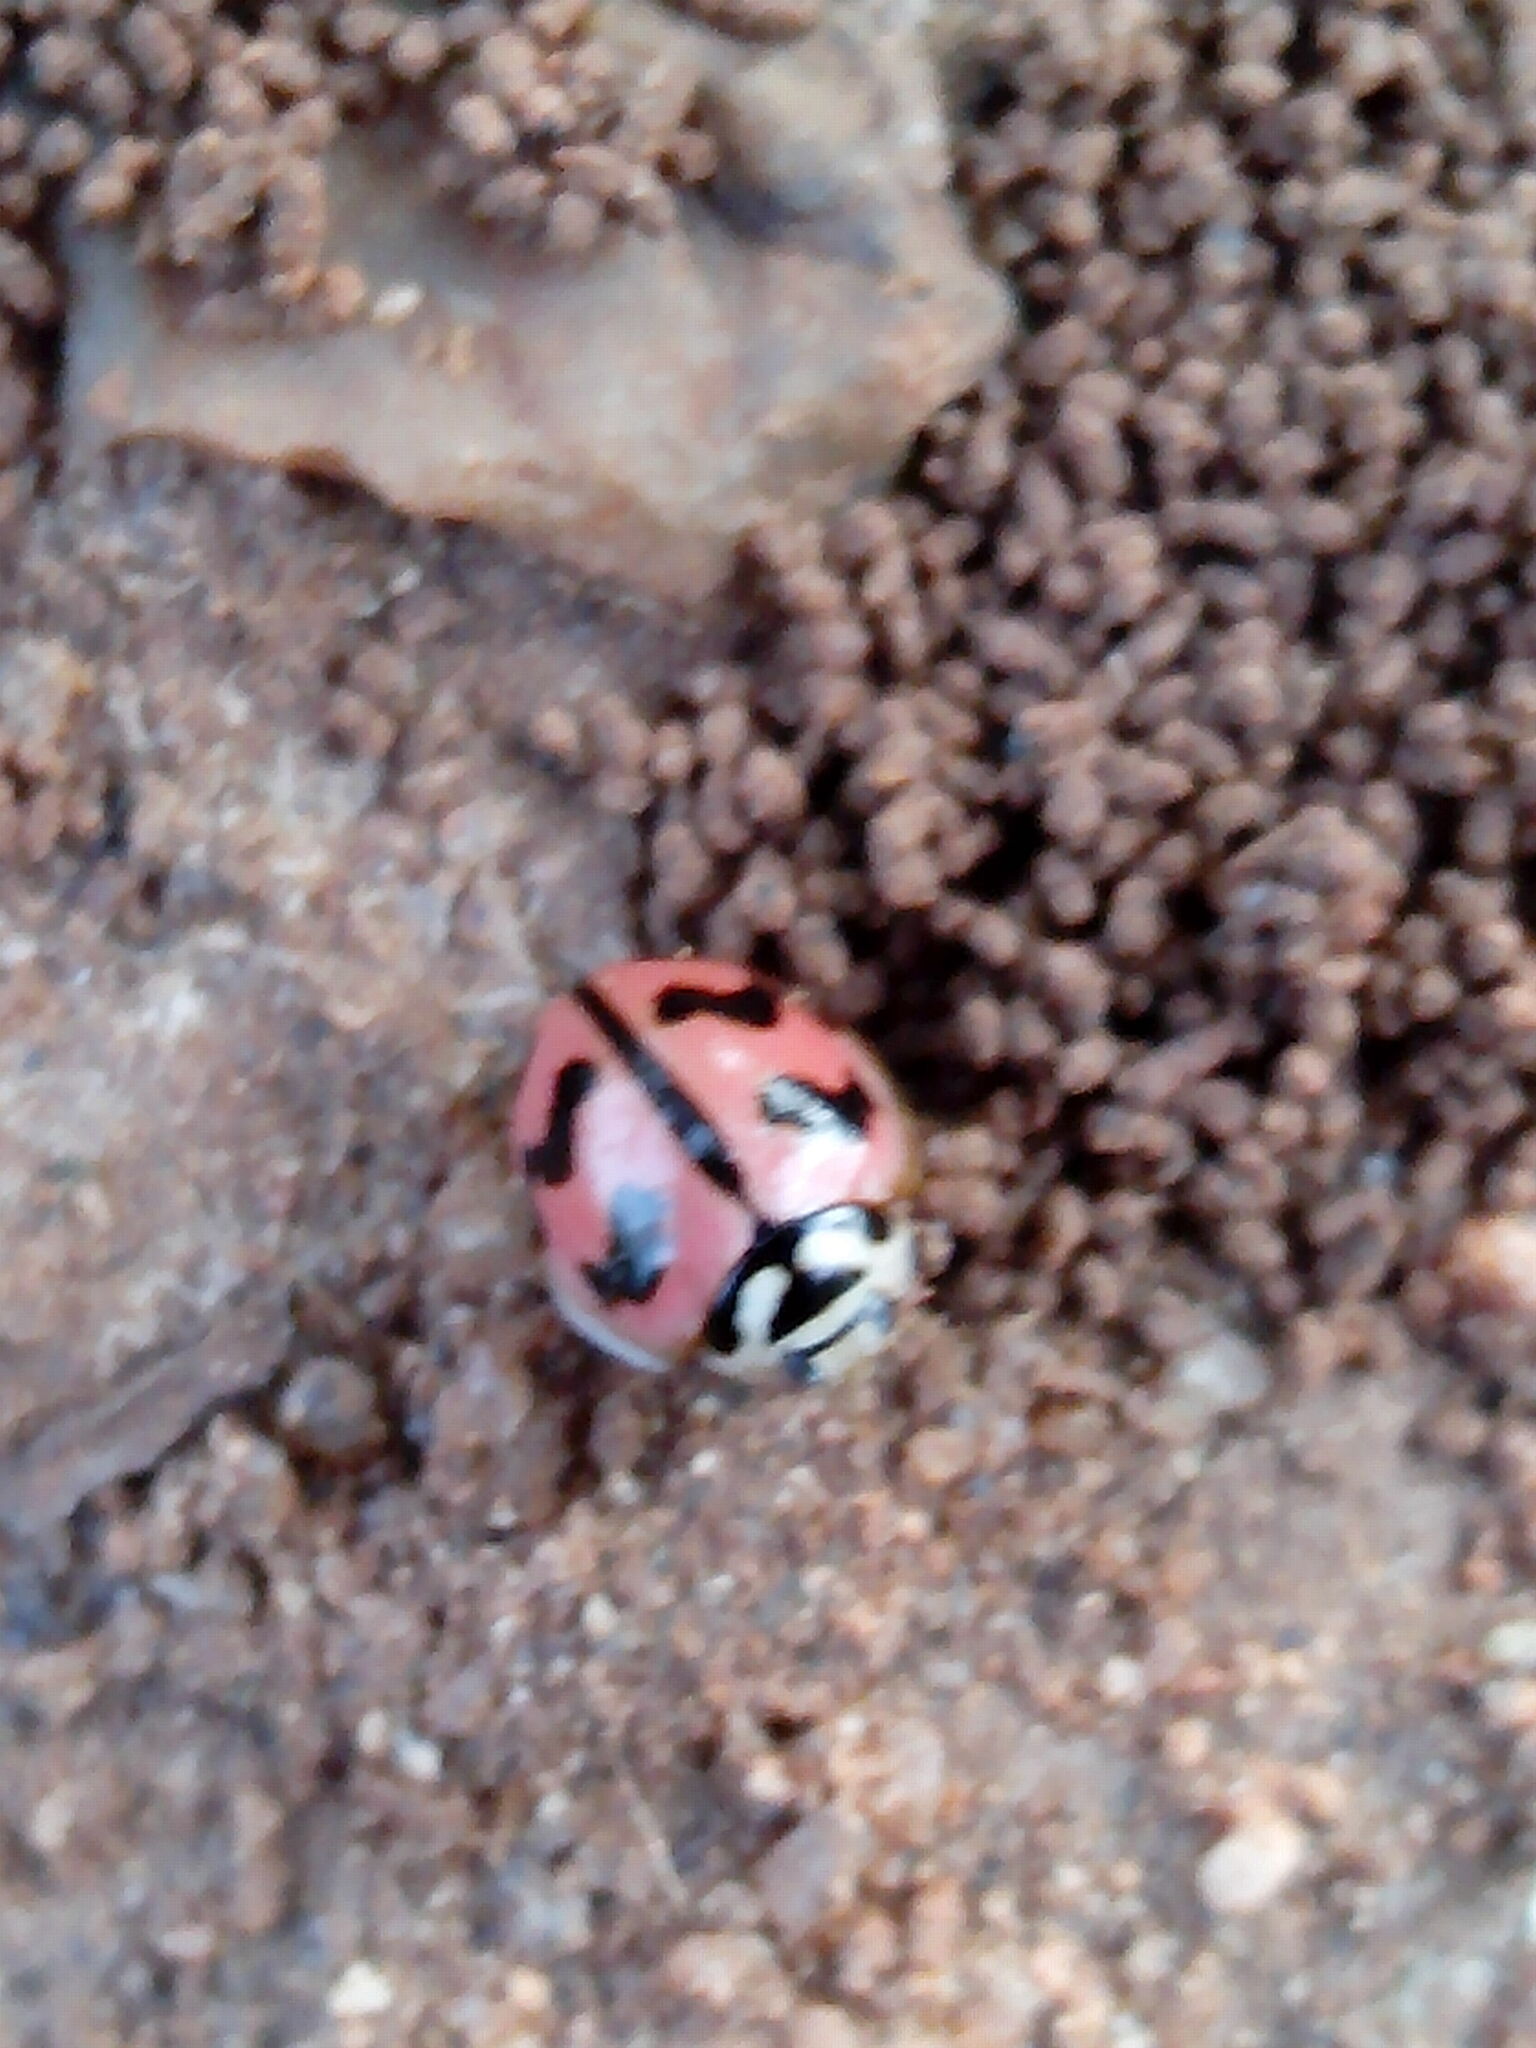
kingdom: Animalia
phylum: Arthropoda
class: Insecta
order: Coleoptera
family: Coccinellidae
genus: Cheilomenes
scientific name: Cheilomenes sexmaculata
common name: Ladybird beetle
